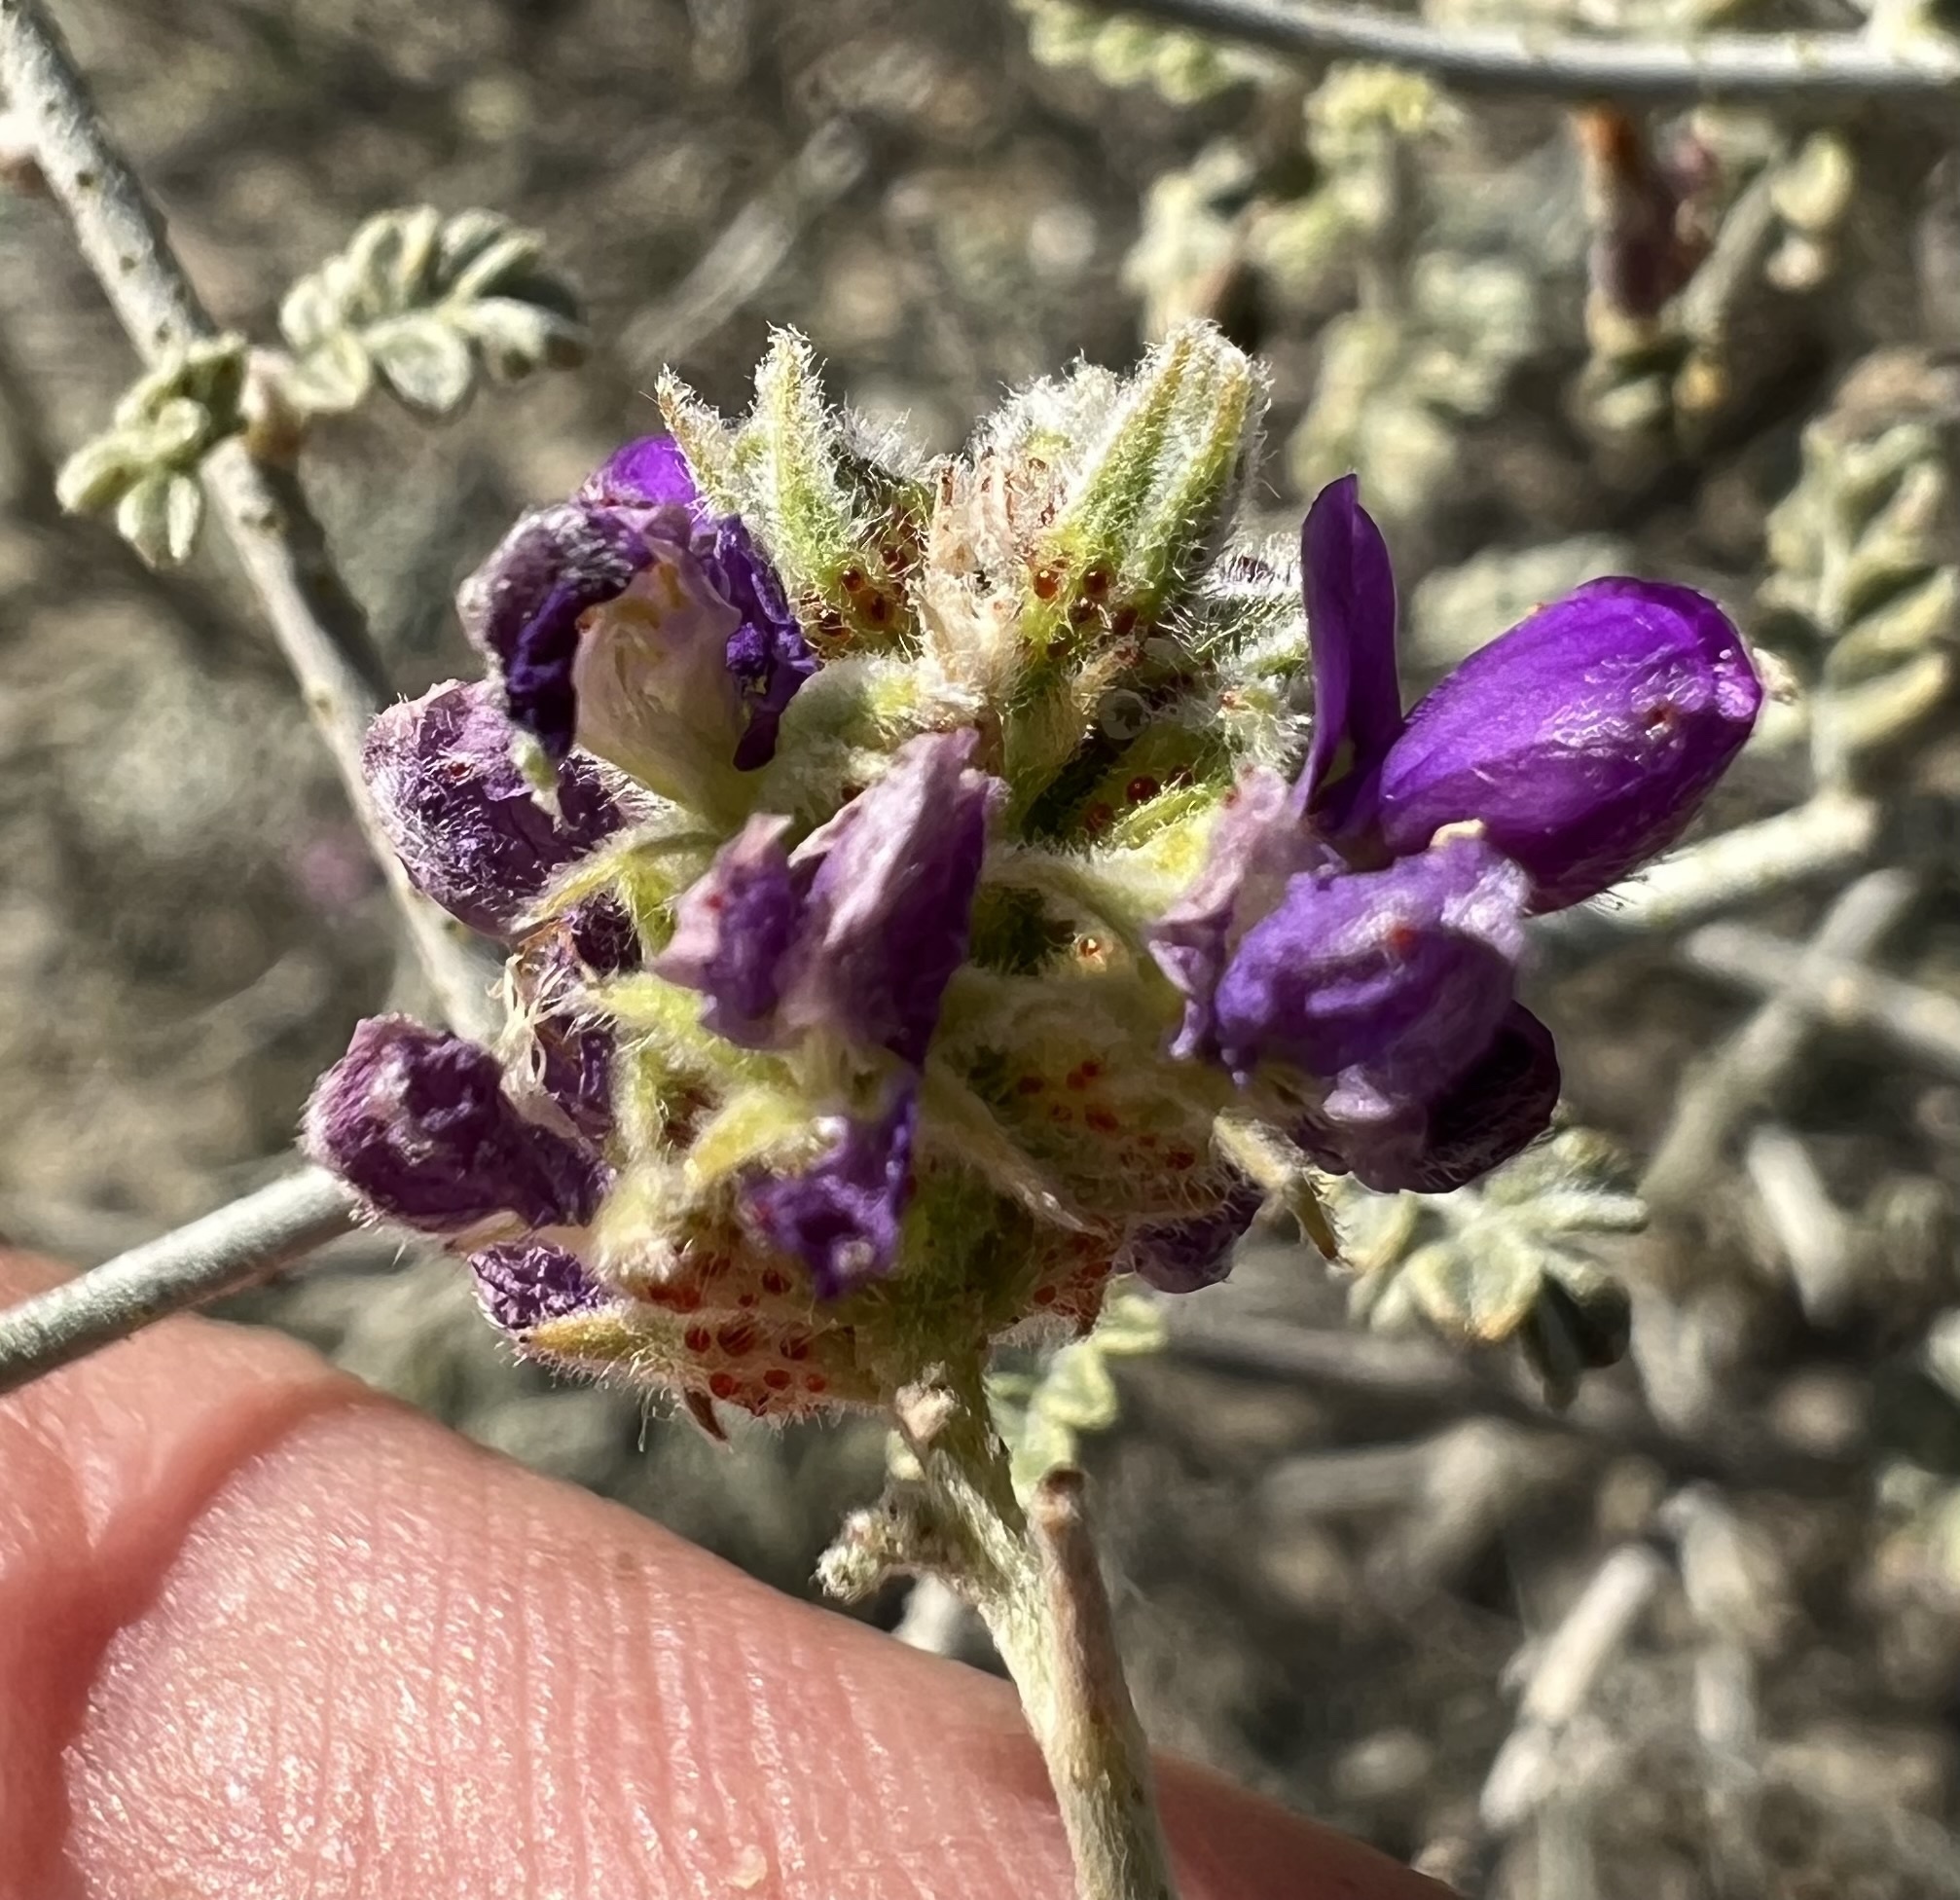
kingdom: Plantae
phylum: Tracheophyta
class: Magnoliopsida
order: Fabales
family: Fabaceae
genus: Psorothamnus
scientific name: Psorothamnus polydenius
